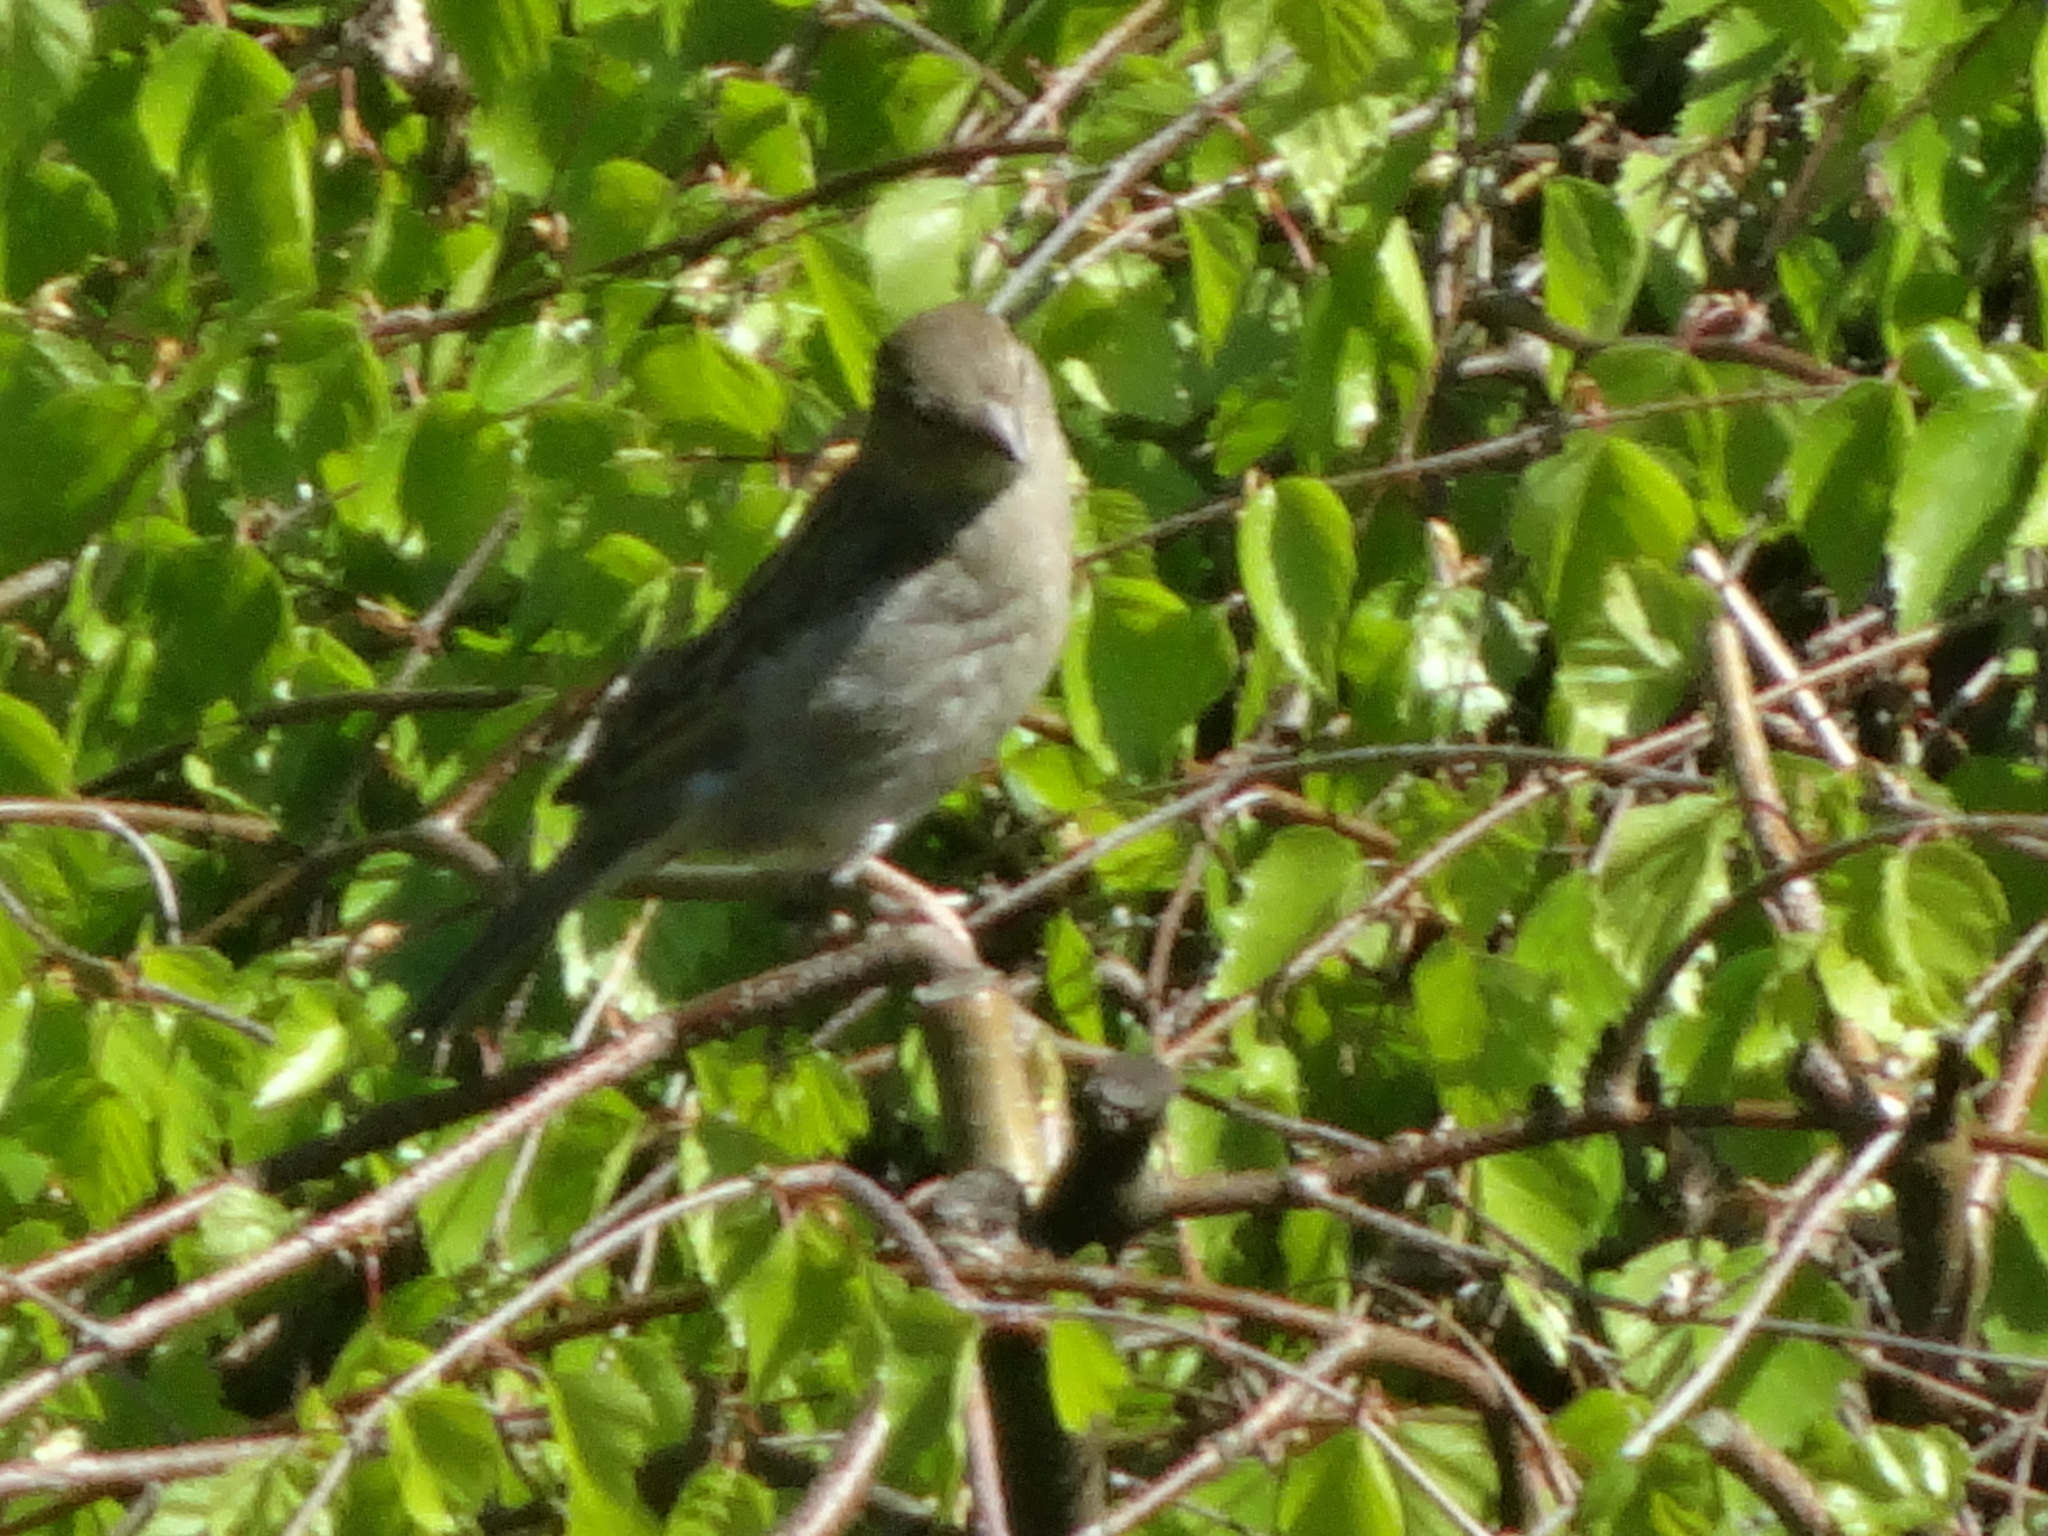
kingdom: Animalia
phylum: Chordata
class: Aves
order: Passeriformes
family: Passeridae
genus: Passer
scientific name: Passer domesticus
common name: House sparrow
